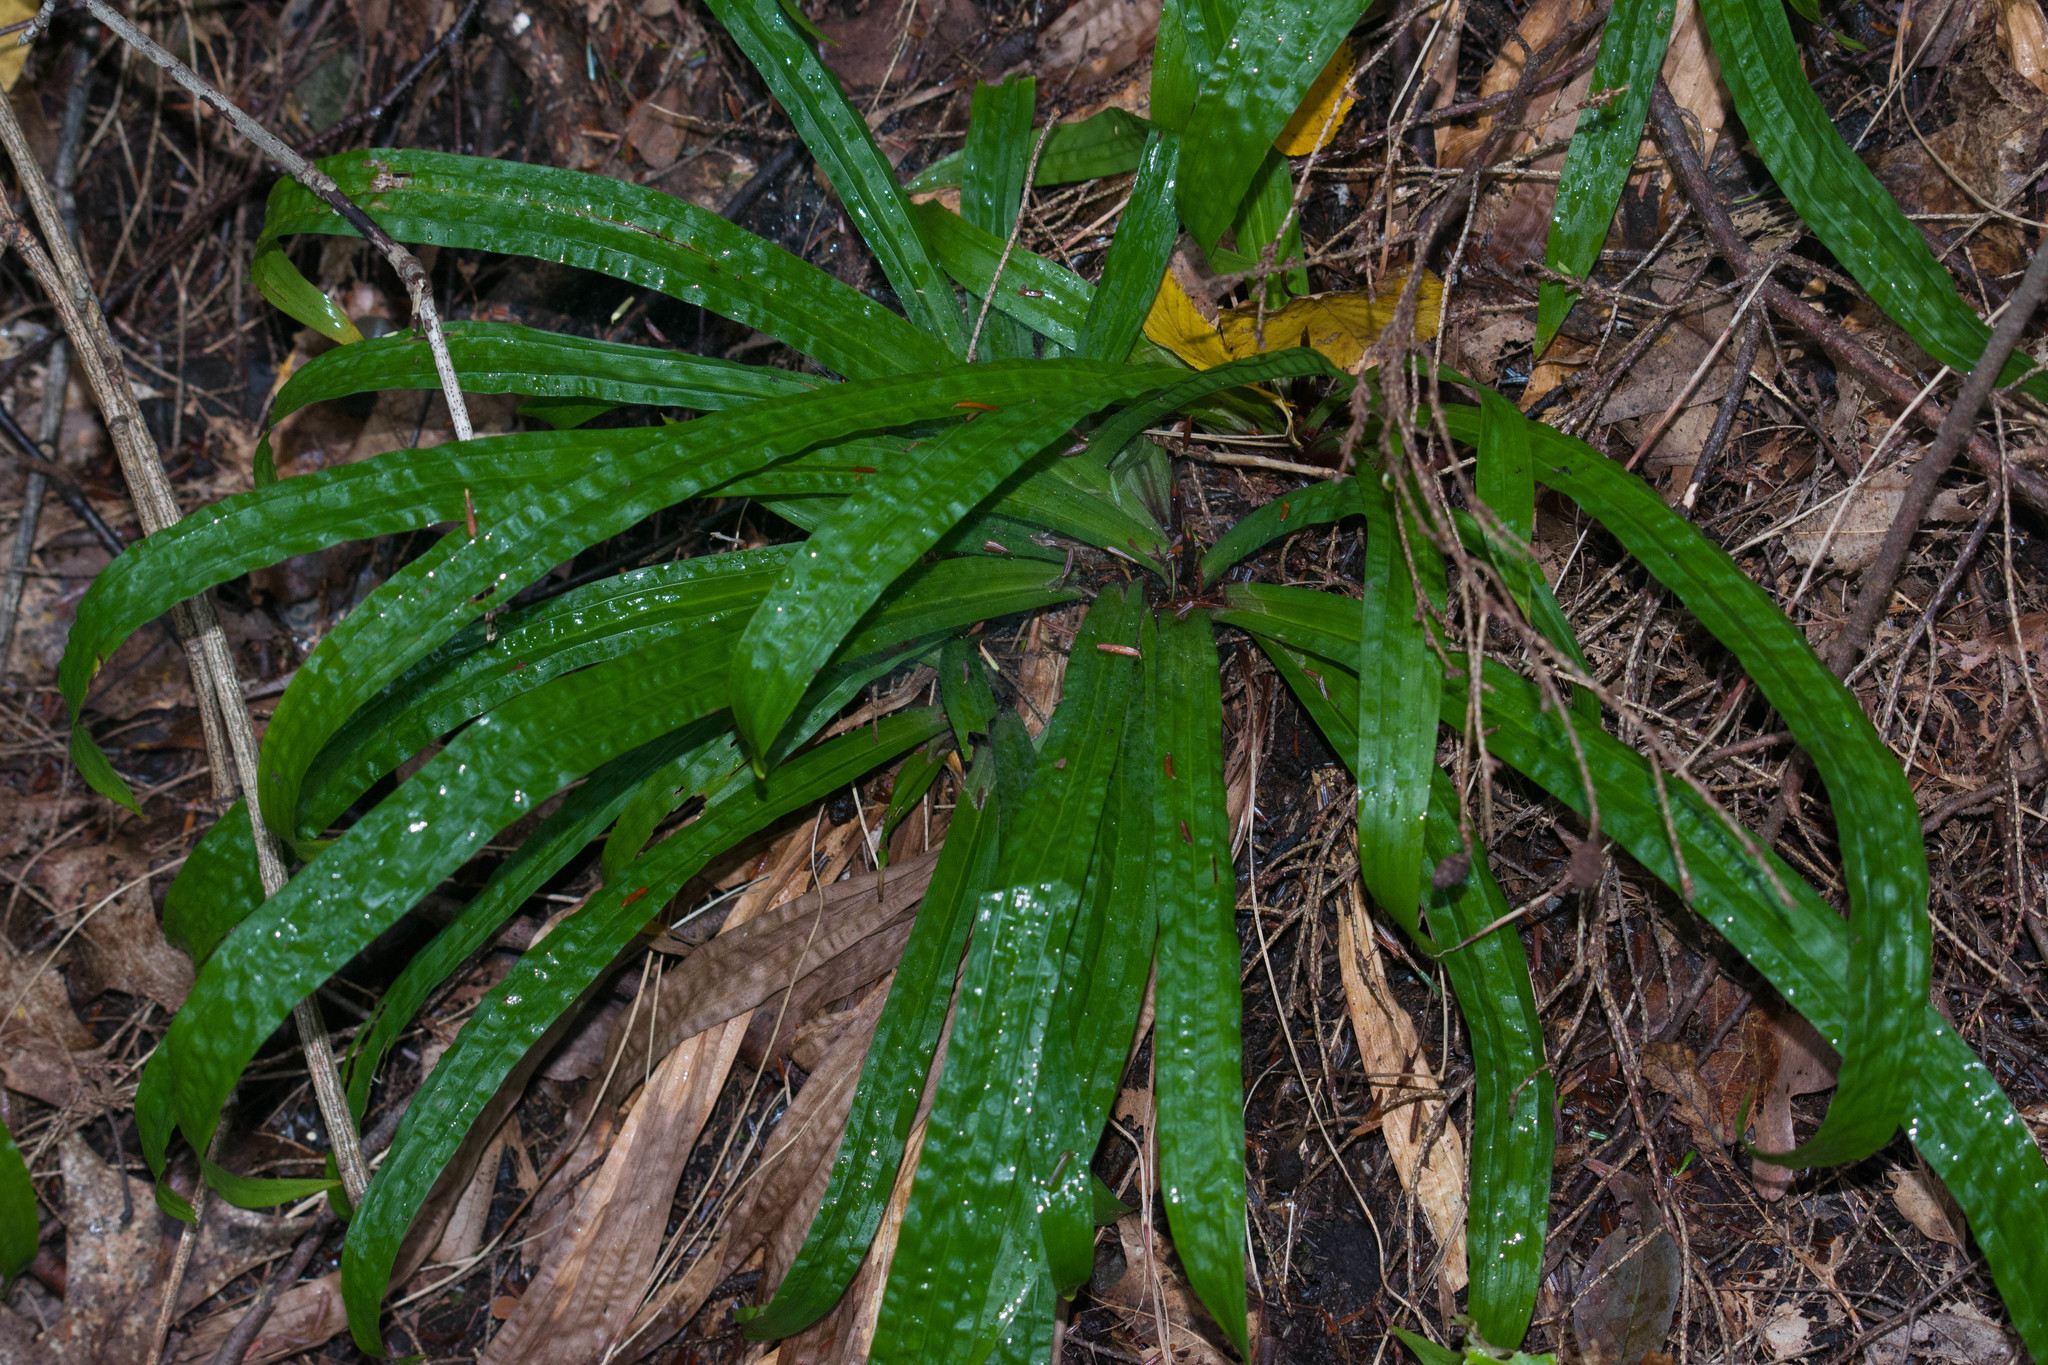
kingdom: Plantae
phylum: Tracheophyta
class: Liliopsida
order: Poales
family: Cyperaceae
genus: Carex
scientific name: Carex plantaginea
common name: Plantain-leaved sedge
